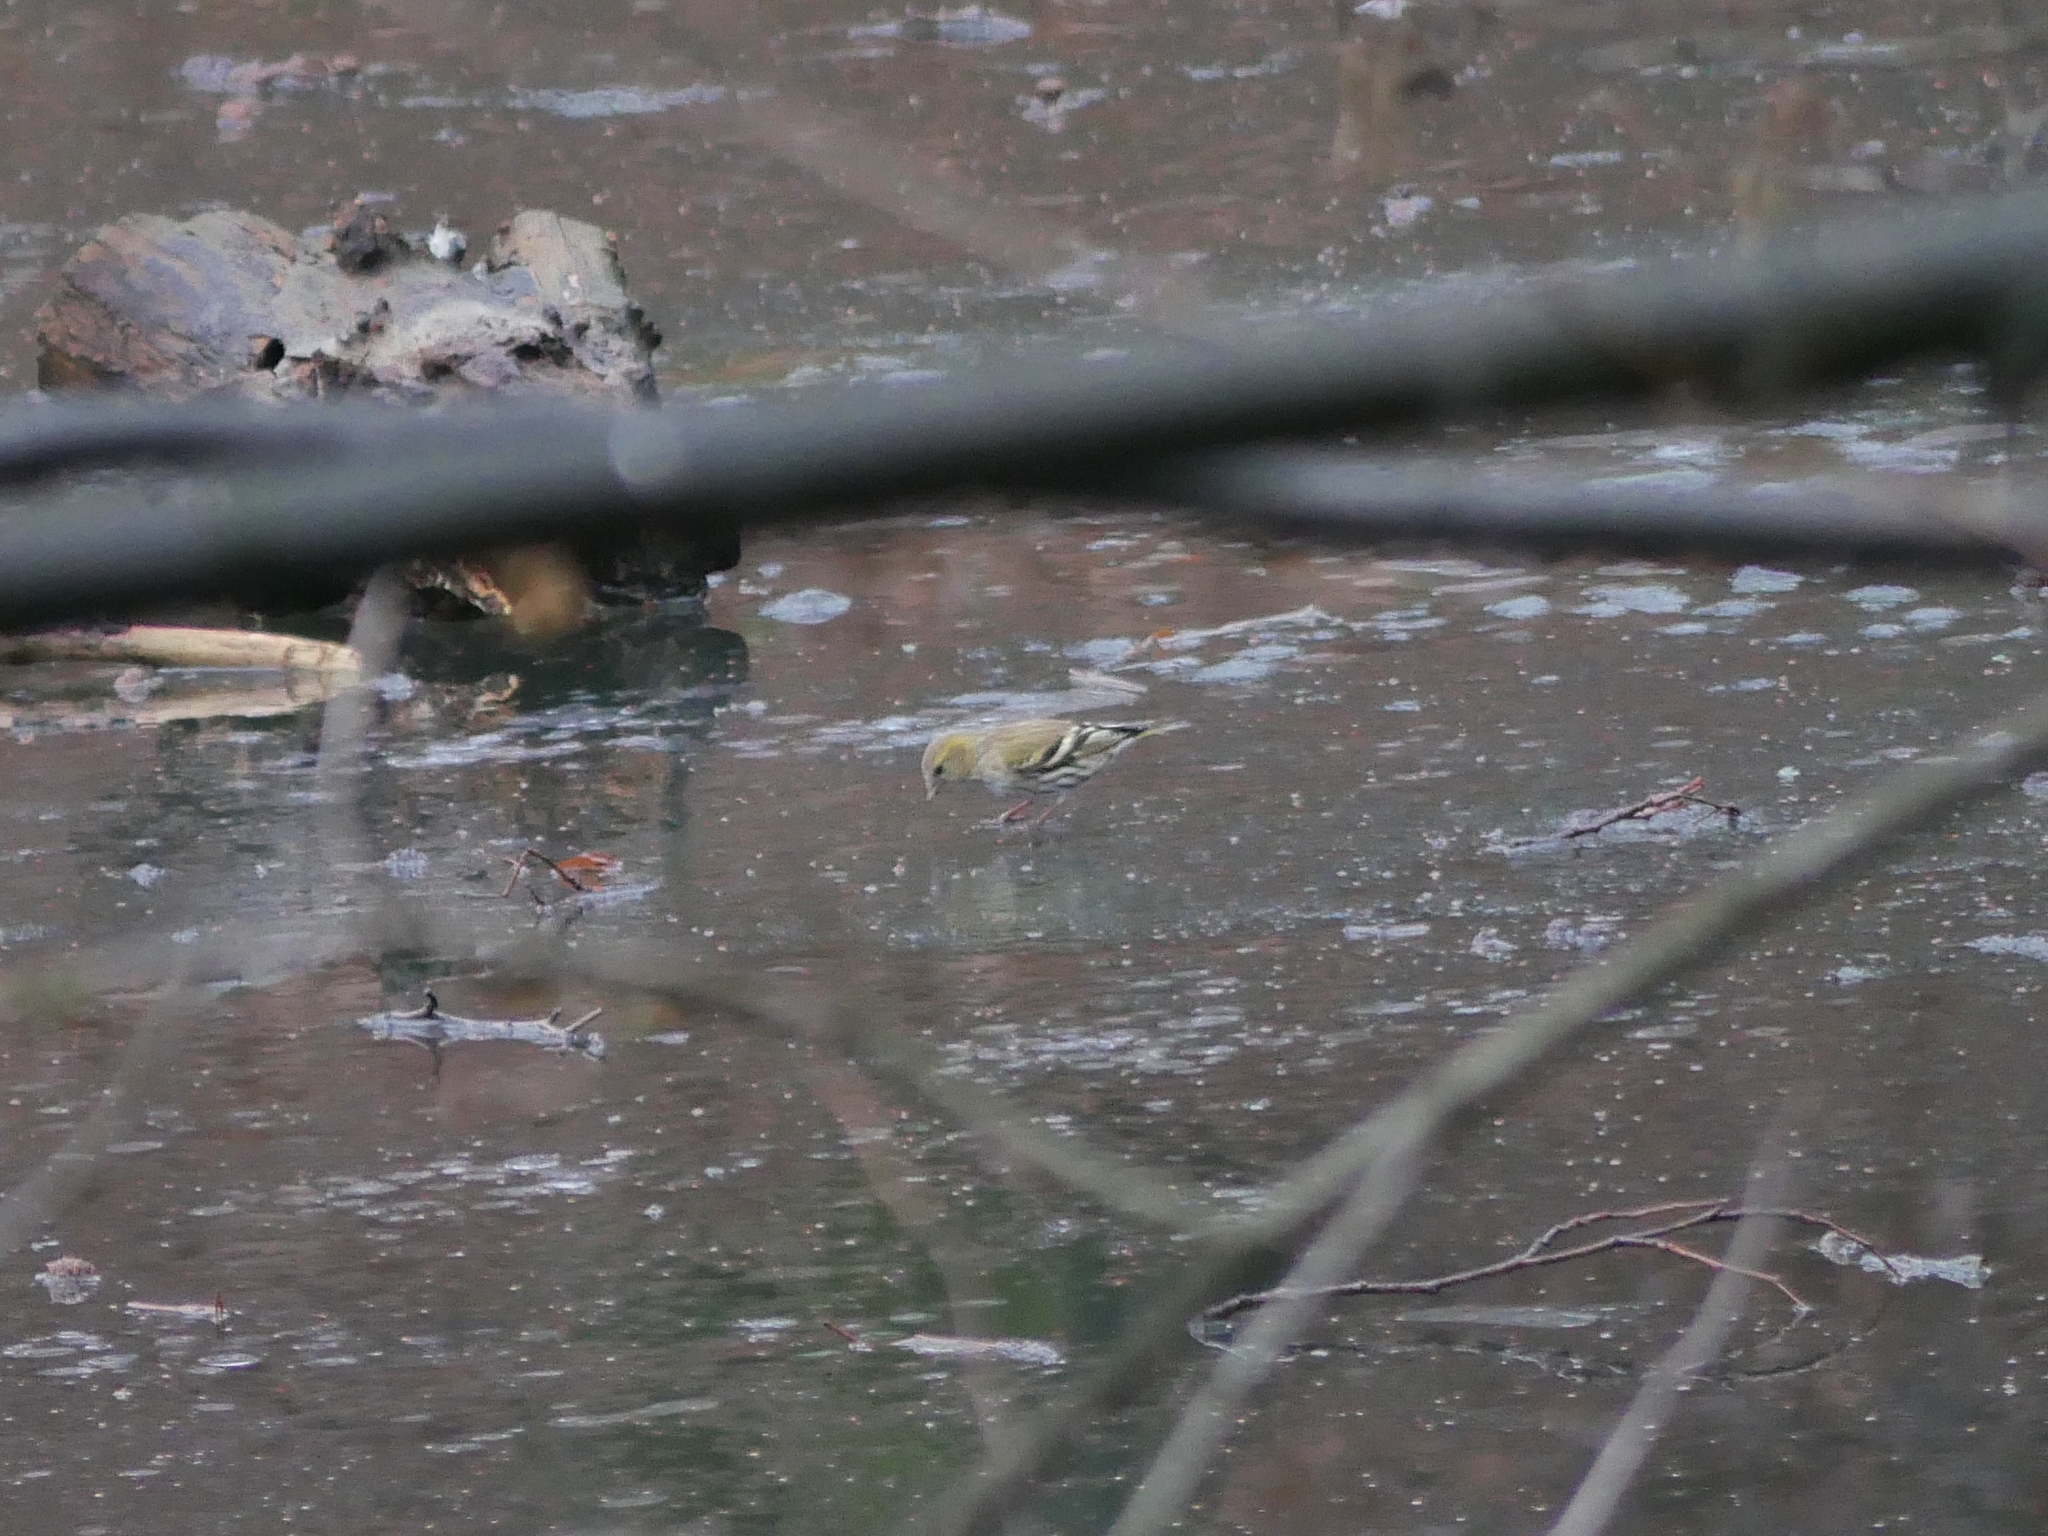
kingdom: Animalia
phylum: Chordata
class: Aves
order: Passeriformes
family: Fringillidae
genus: Spinus
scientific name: Spinus spinus
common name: Eurasian siskin
